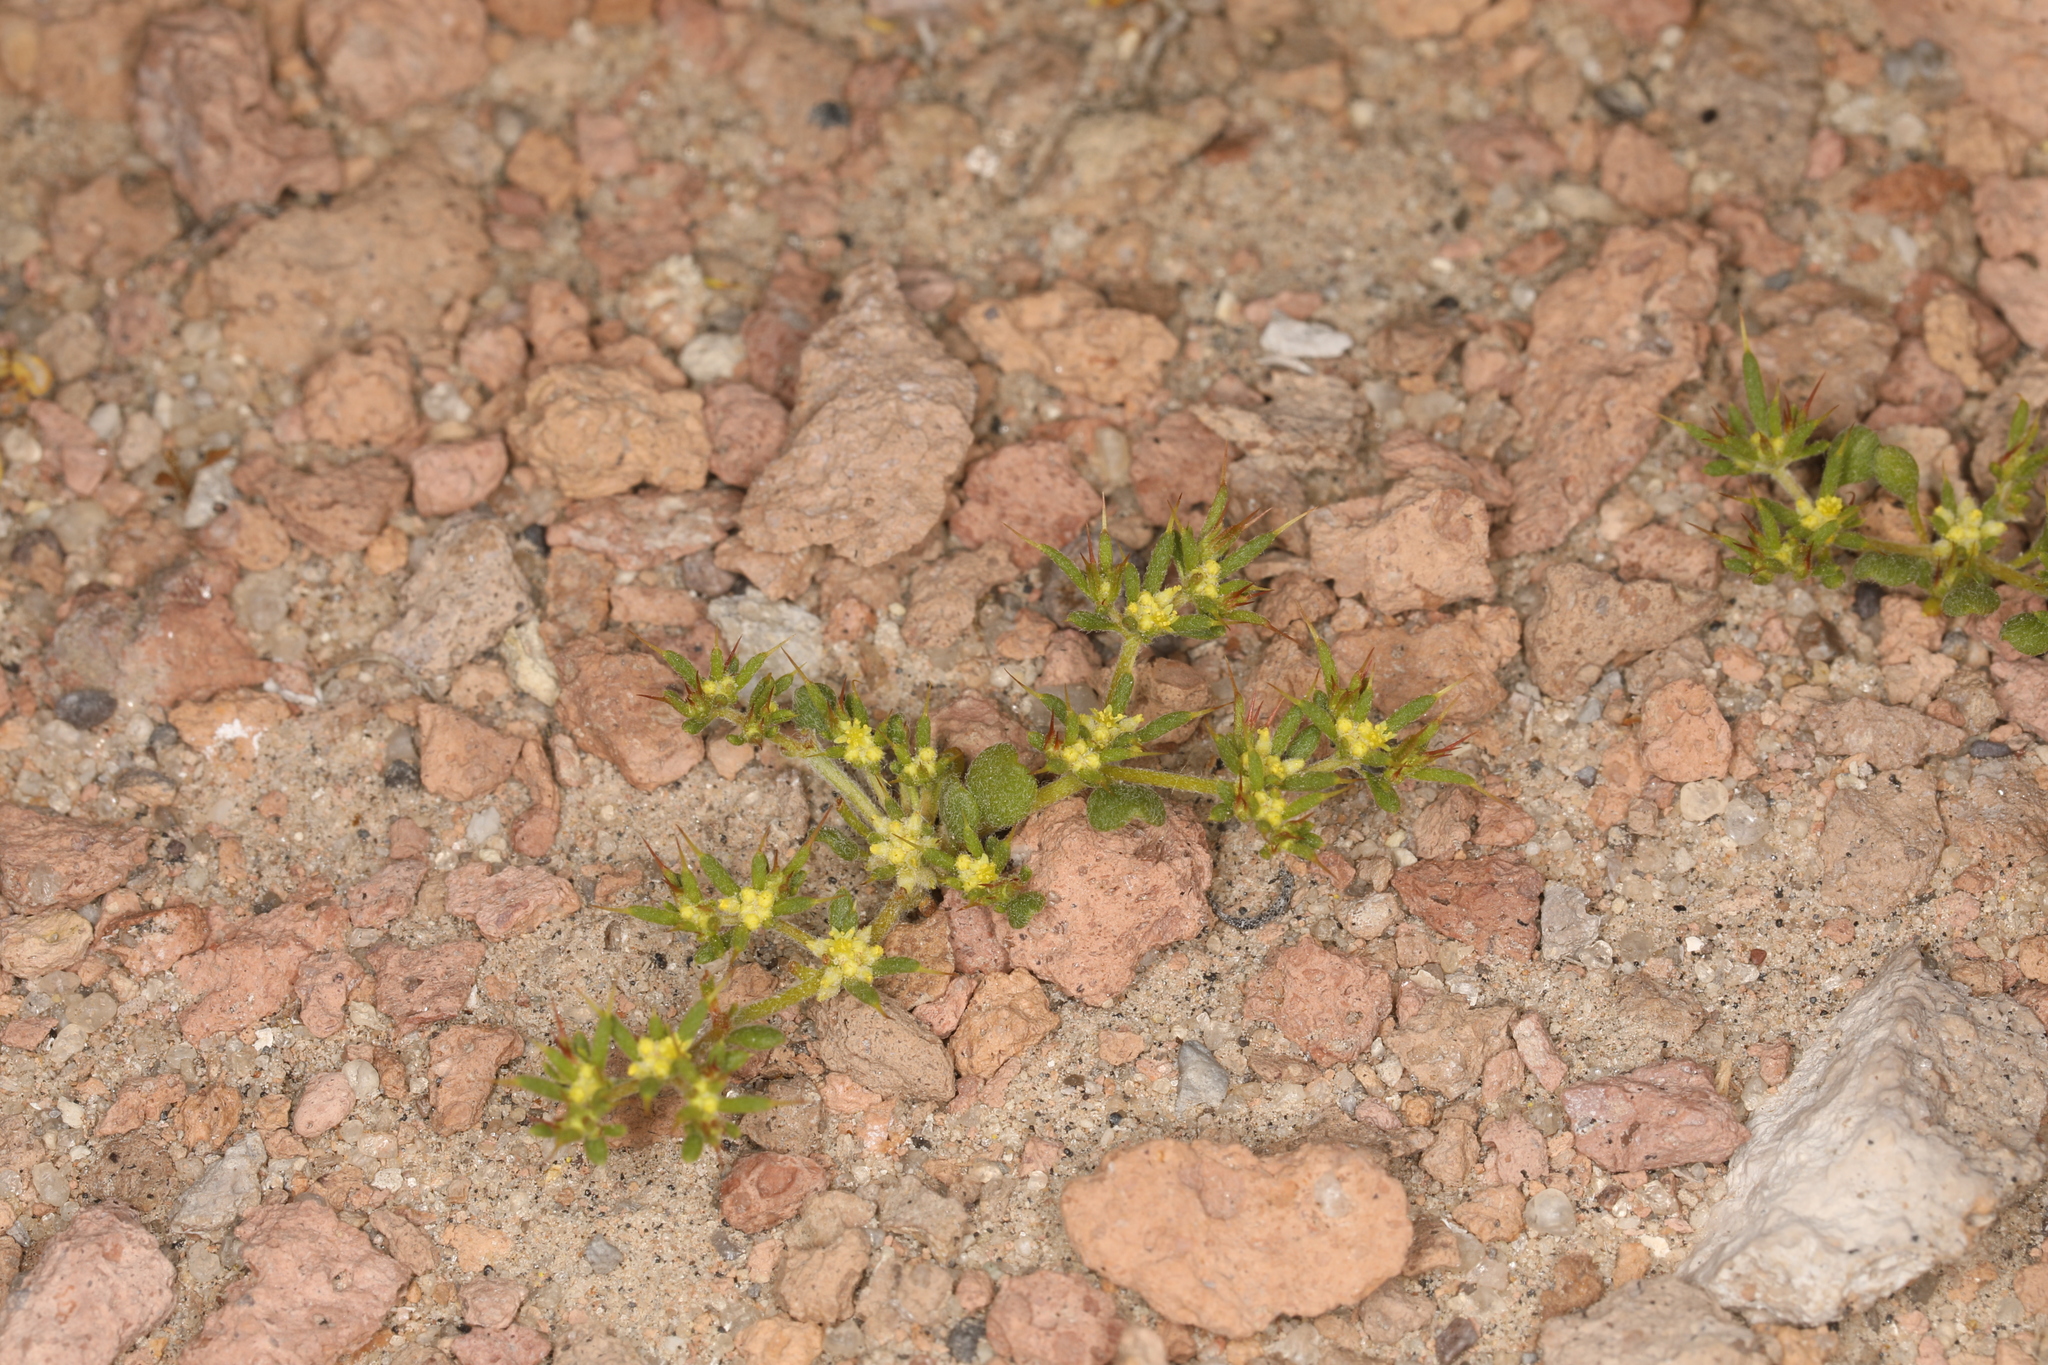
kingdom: Plantae
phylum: Tracheophyta
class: Magnoliopsida
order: Caryophyllales
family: Polygonaceae
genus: Goodmania
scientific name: Goodmania luteola
